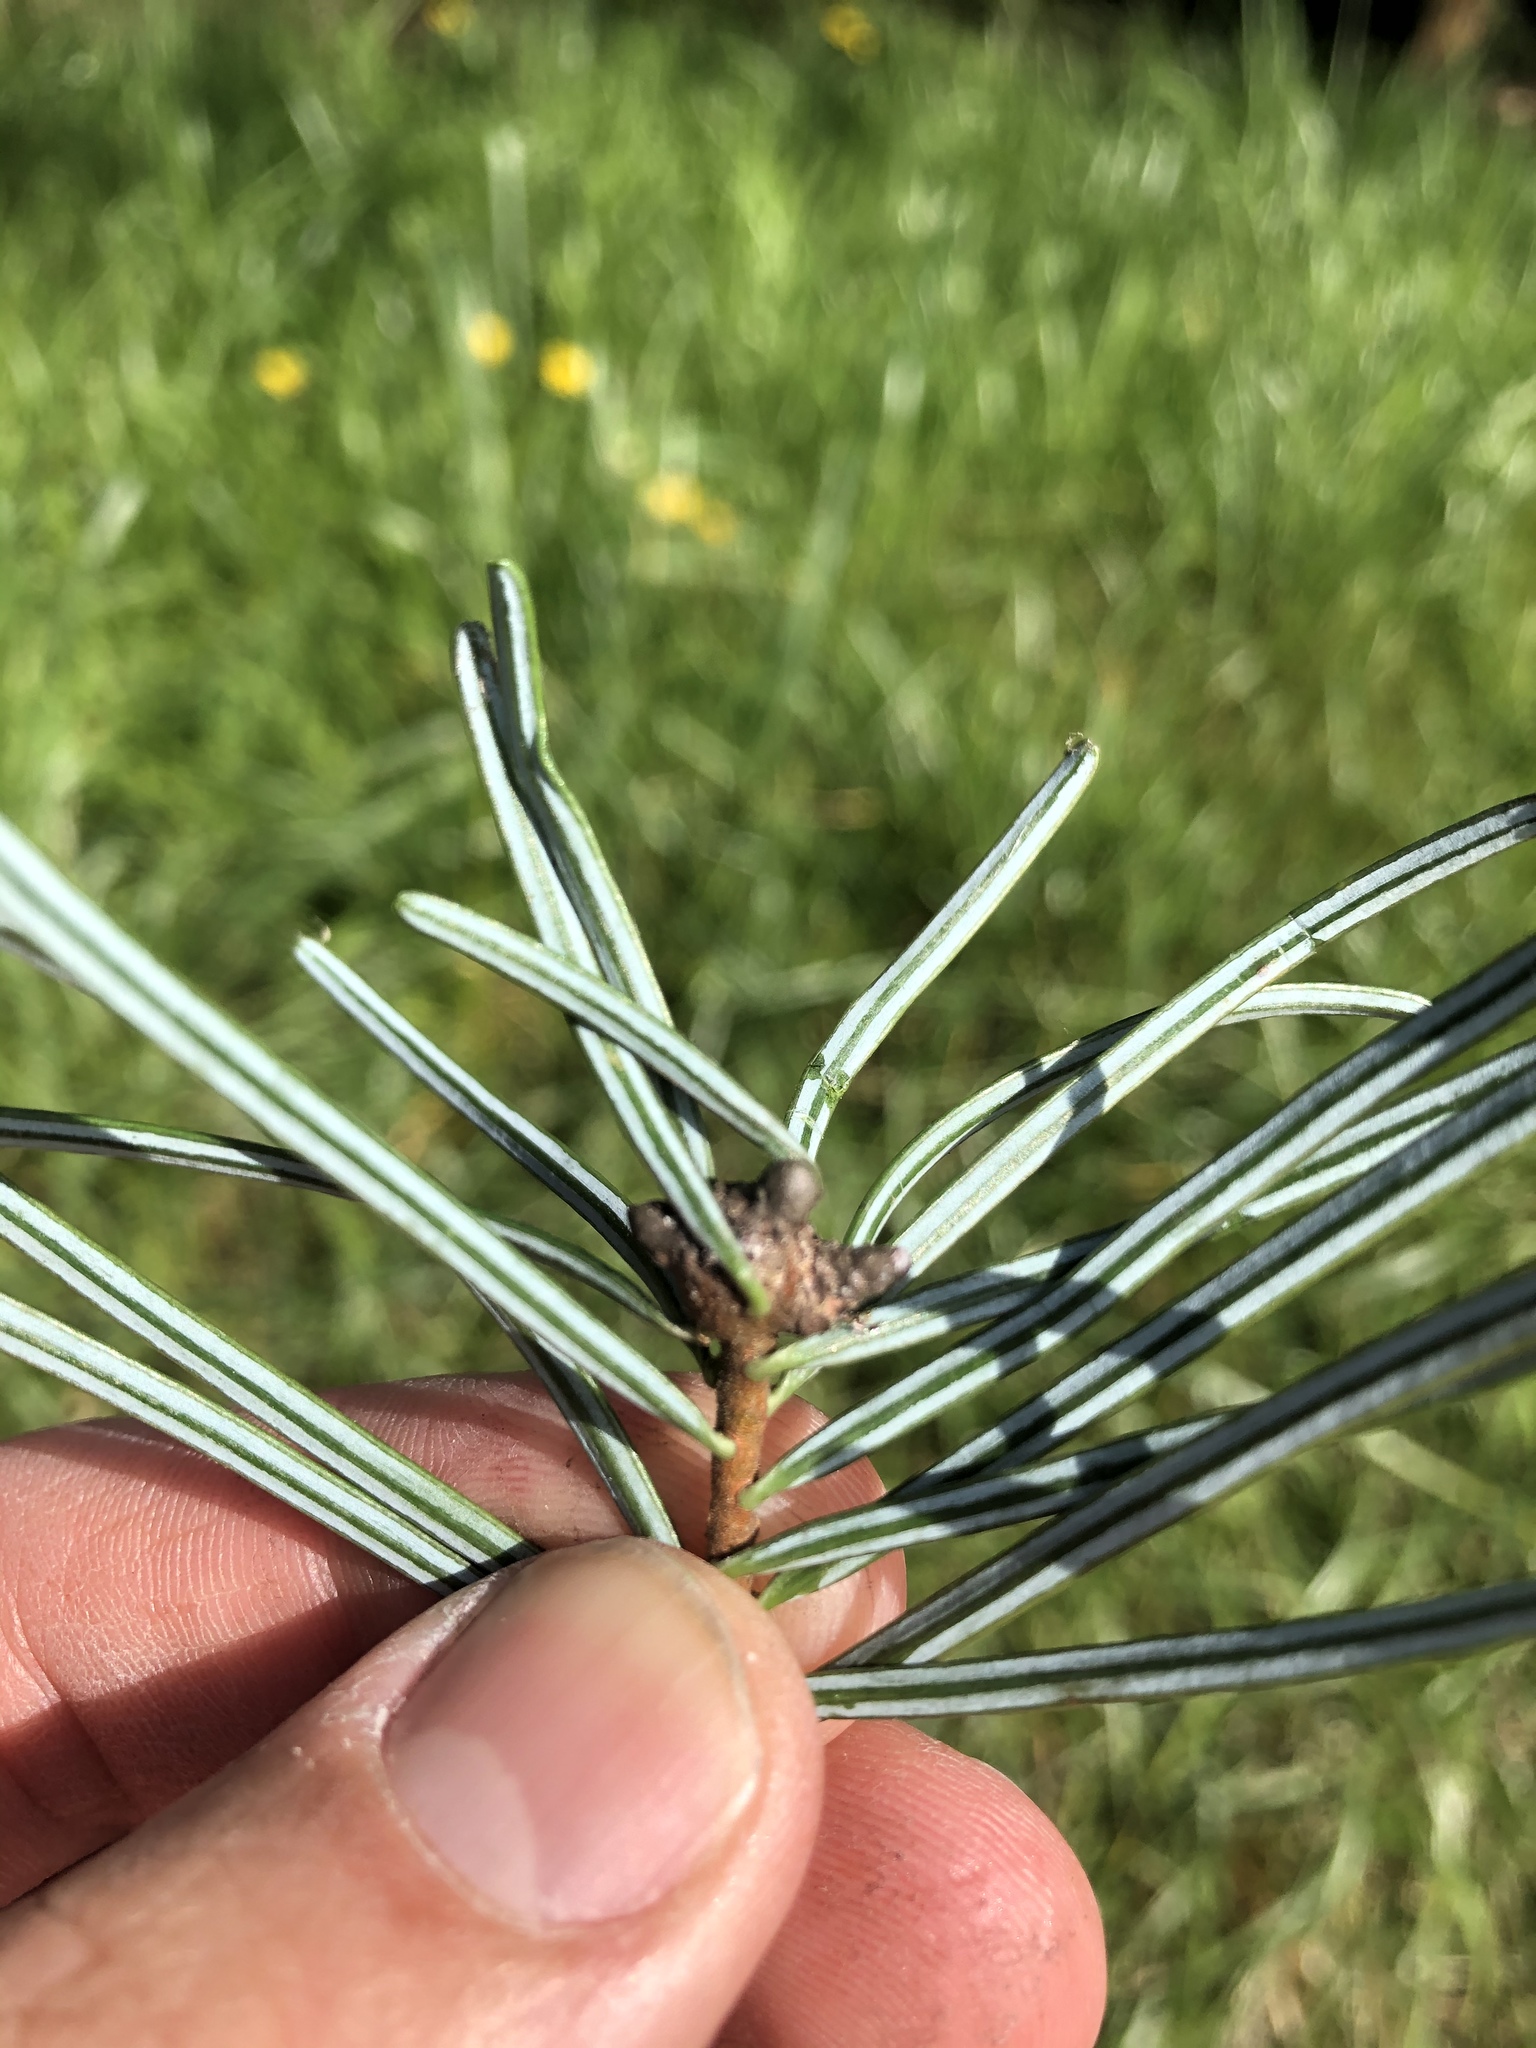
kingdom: Plantae
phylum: Tracheophyta
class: Pinopsida
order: Pinales
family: Pinaceae
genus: Abies
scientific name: Abies grandis
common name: Giant fir
